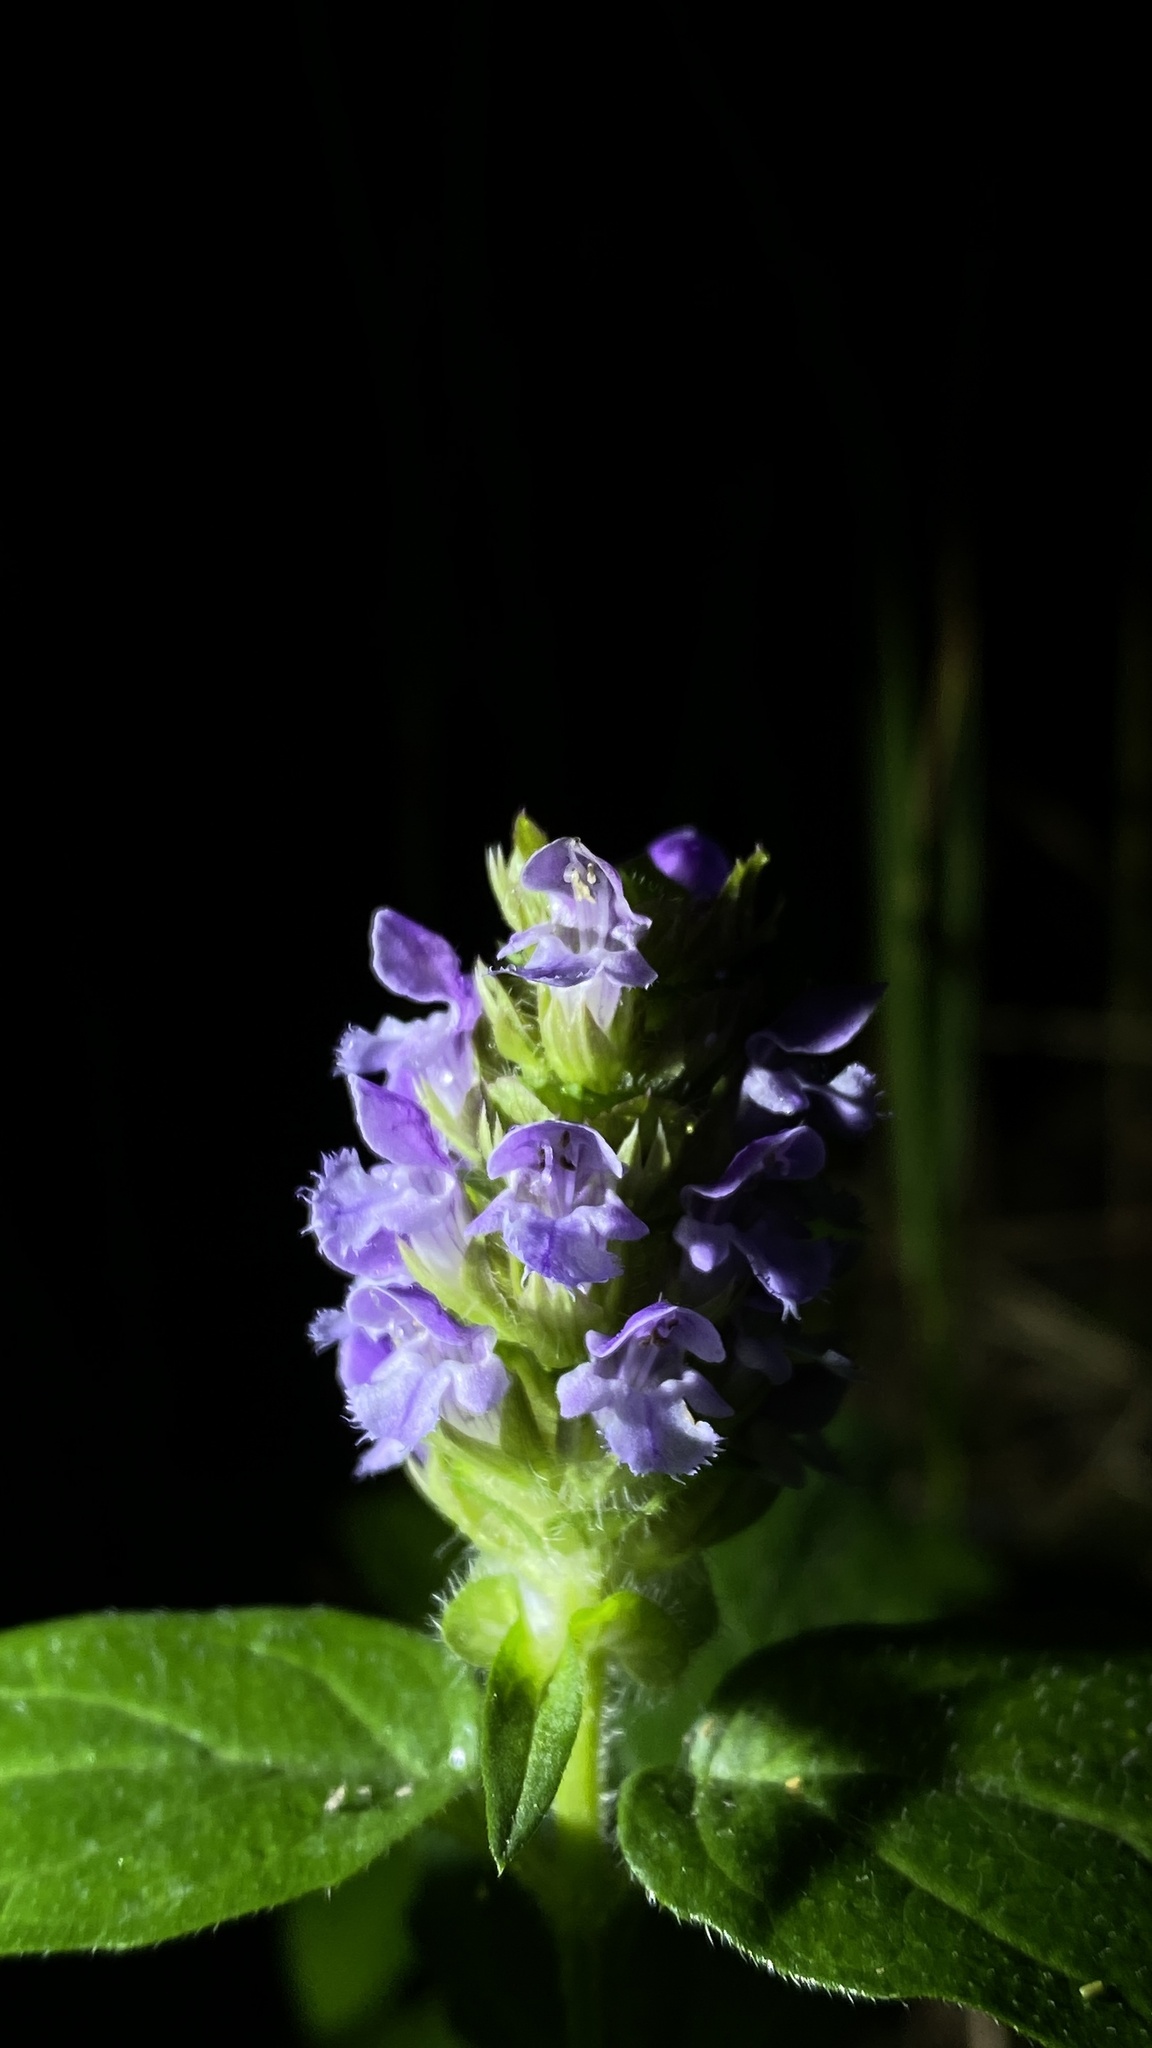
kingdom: Plantae
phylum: Tracheophyta
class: Magnoliopsida
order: Lamiales
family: Lamiaceae
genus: Prunella
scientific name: Prunella vulgaris
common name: Heal-all
